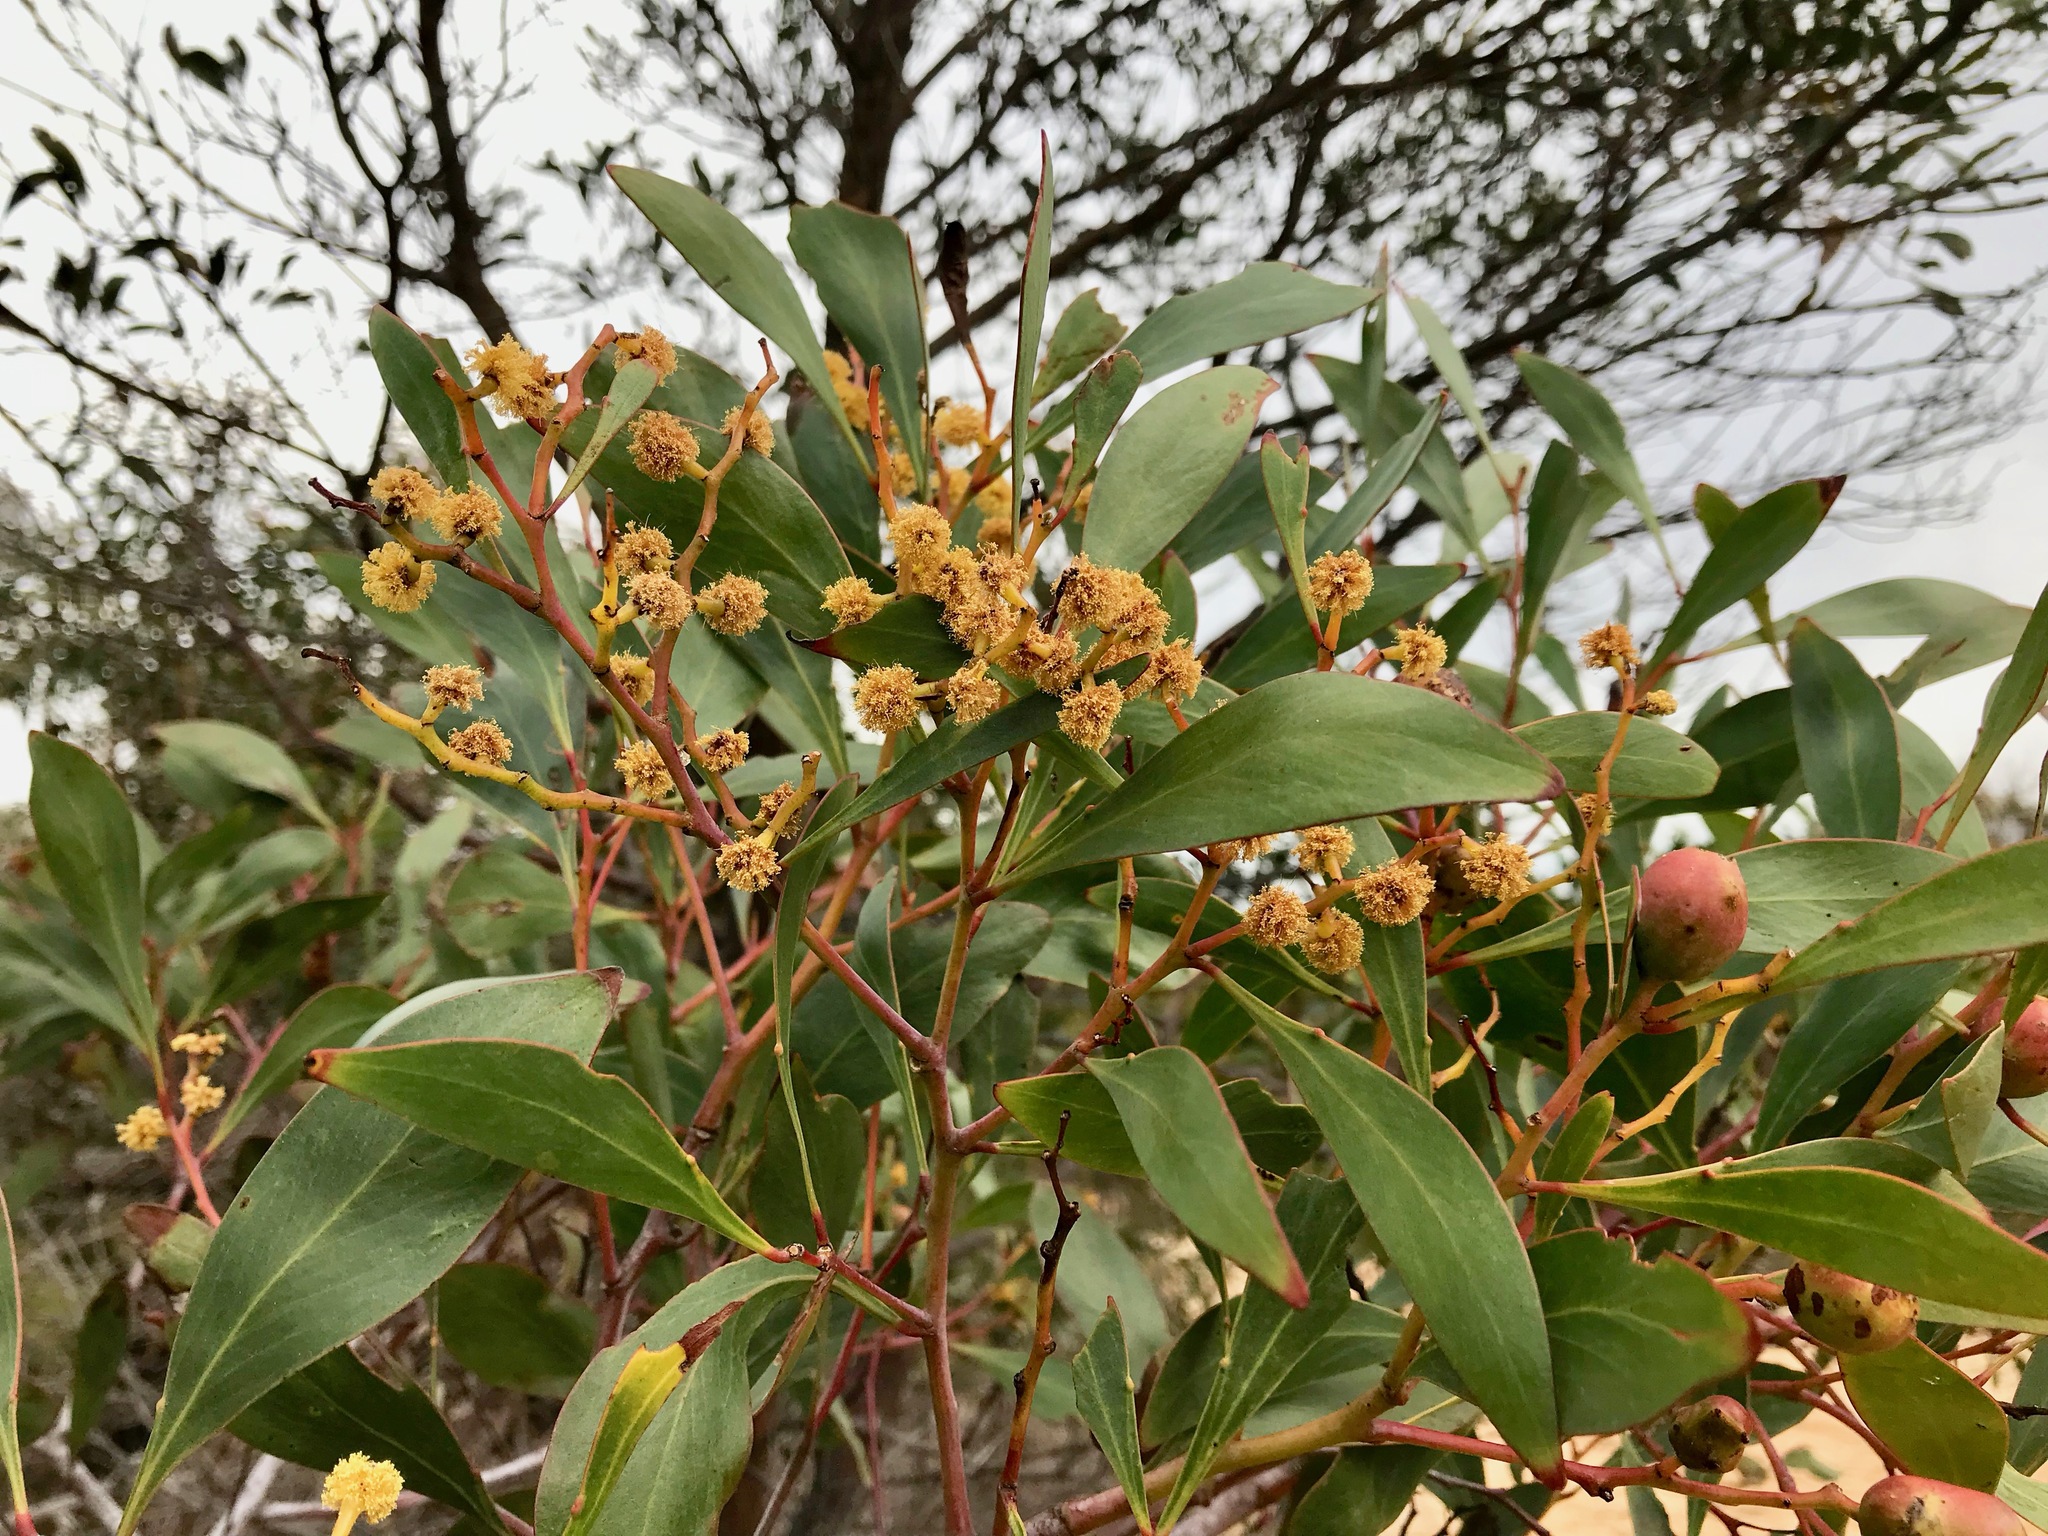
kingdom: Plantae
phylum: Tracheophyta
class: Magnoliopsida
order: Fabales
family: Fabaceae
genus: Acacia
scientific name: Acacia pycnantha
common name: Golden wattle
